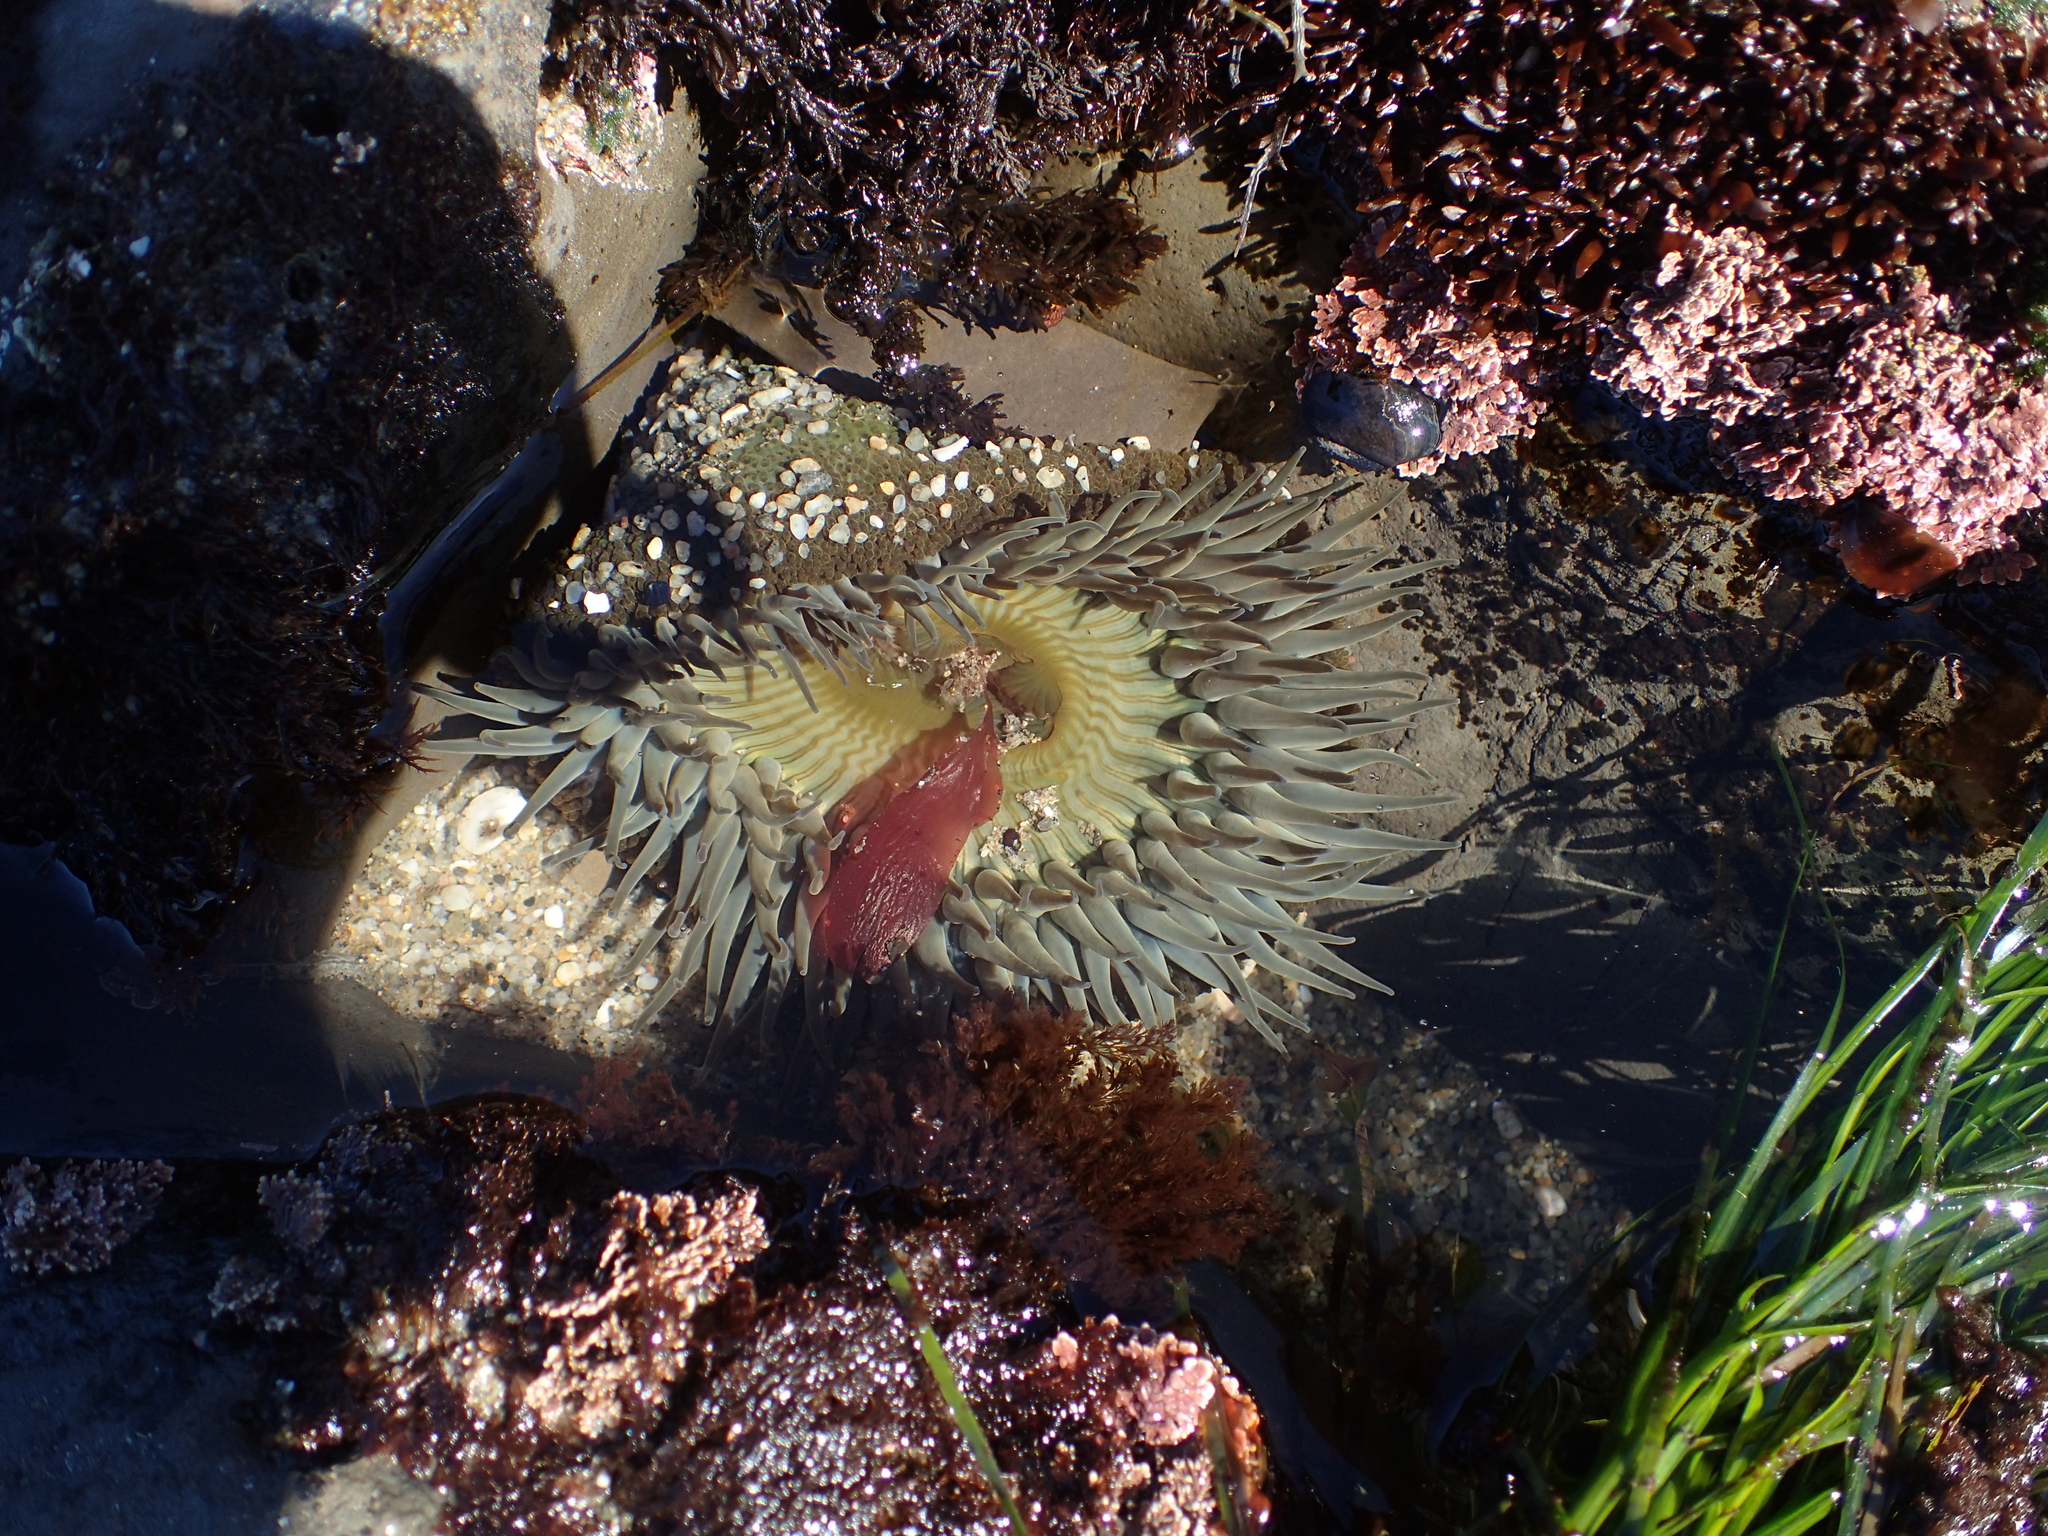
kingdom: Animalia
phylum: Cnidaria
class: Anthozoa
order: Actiniaria
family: Actiniidae
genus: Anthopleura
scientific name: Anthopleura sola
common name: Sun anemone
